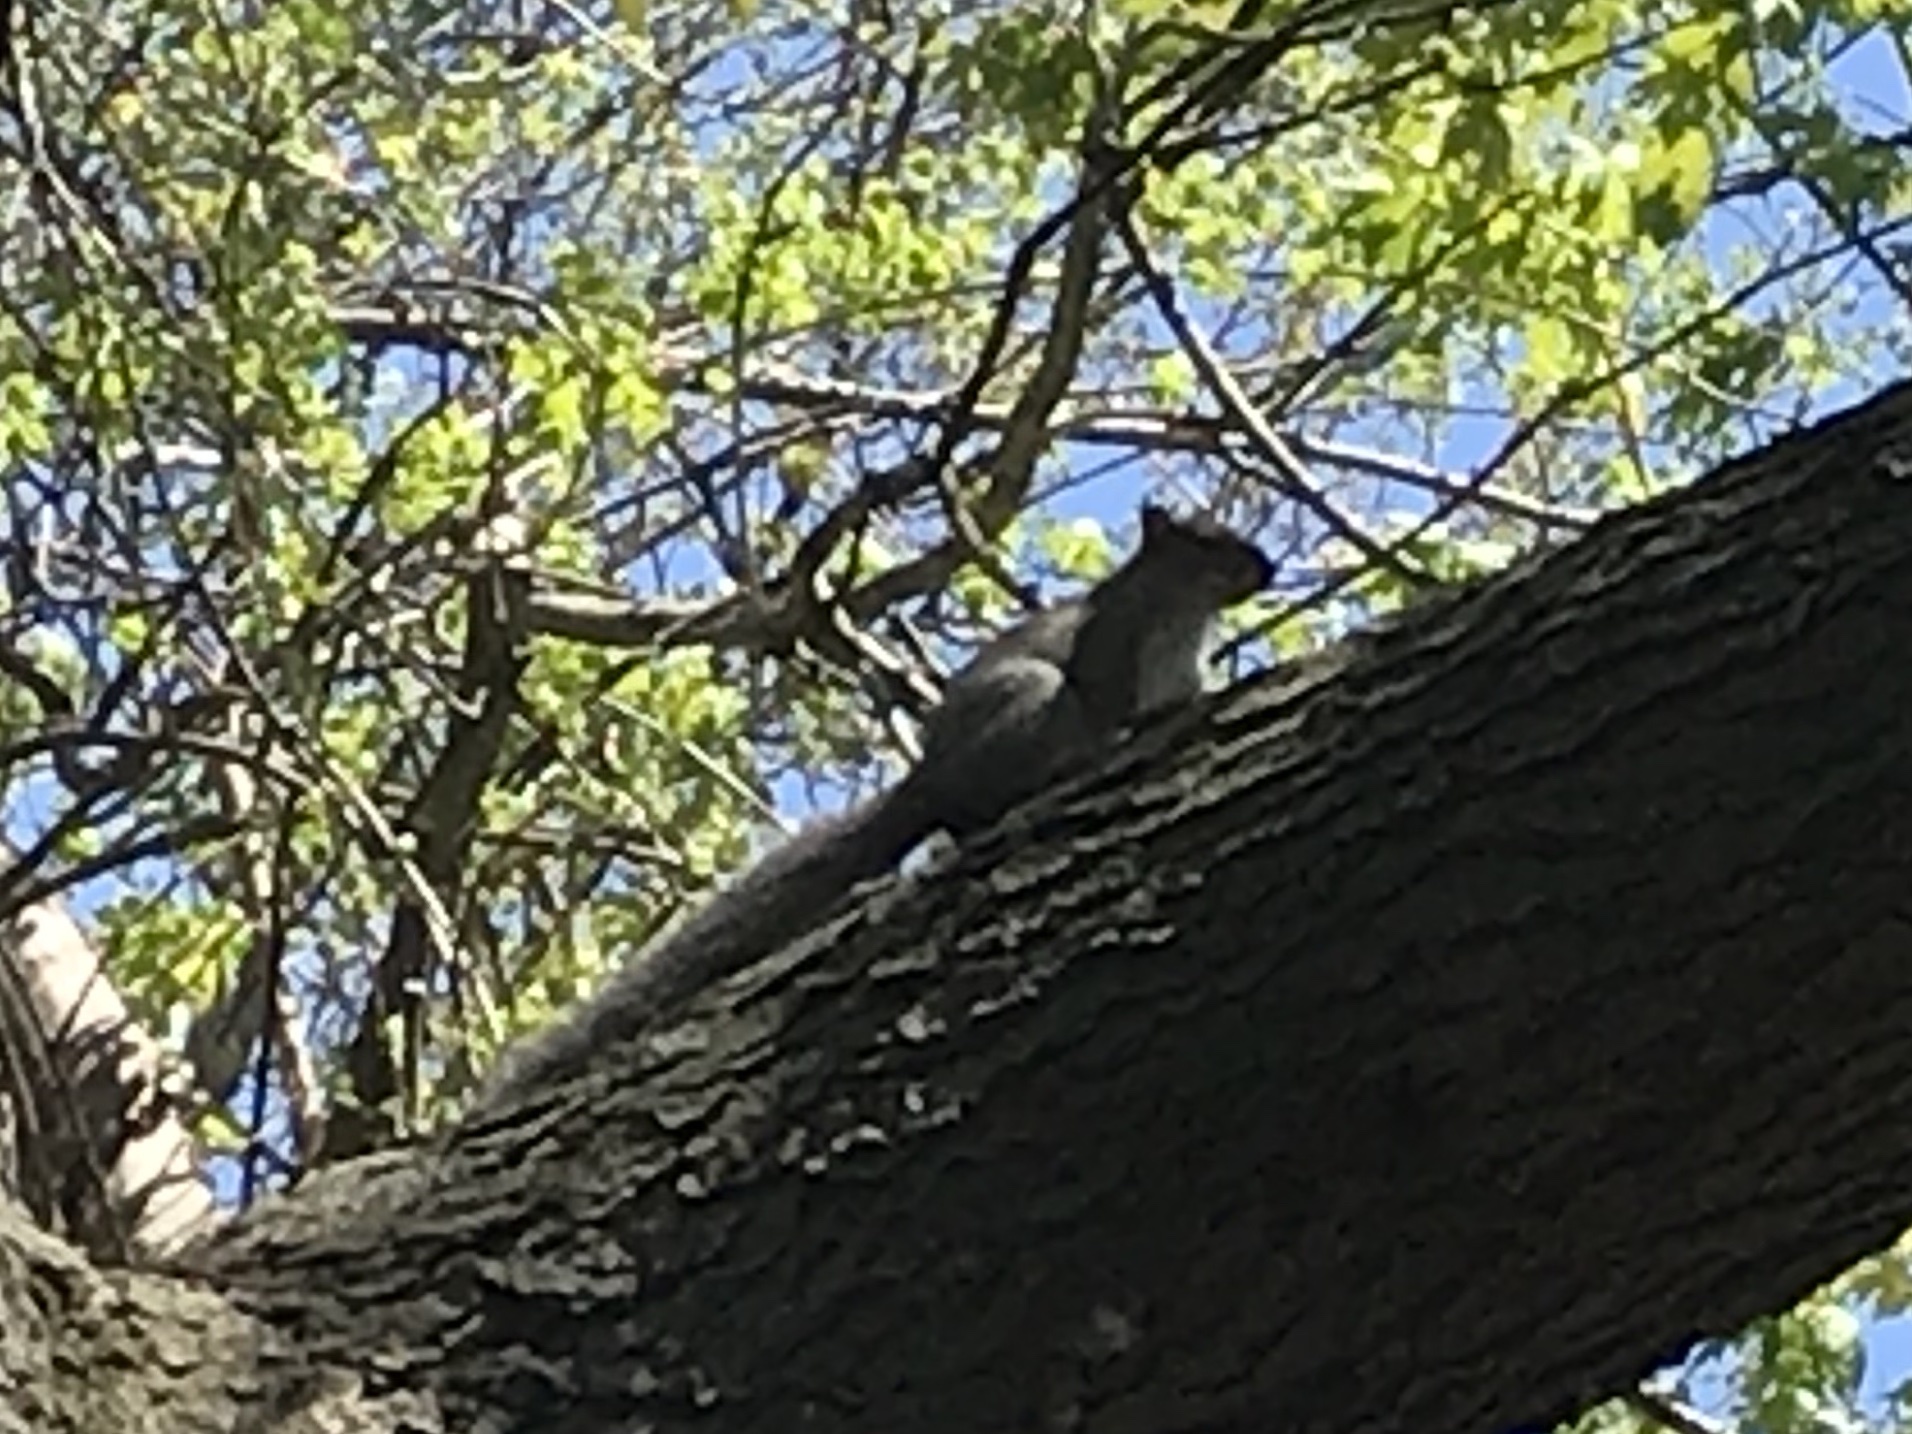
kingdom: Animalia
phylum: Chordata
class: Mammalia
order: Rodentia
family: Sciuridae
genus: Sciurus
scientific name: Sciurus carolinensis
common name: Eastern gray squirrel
